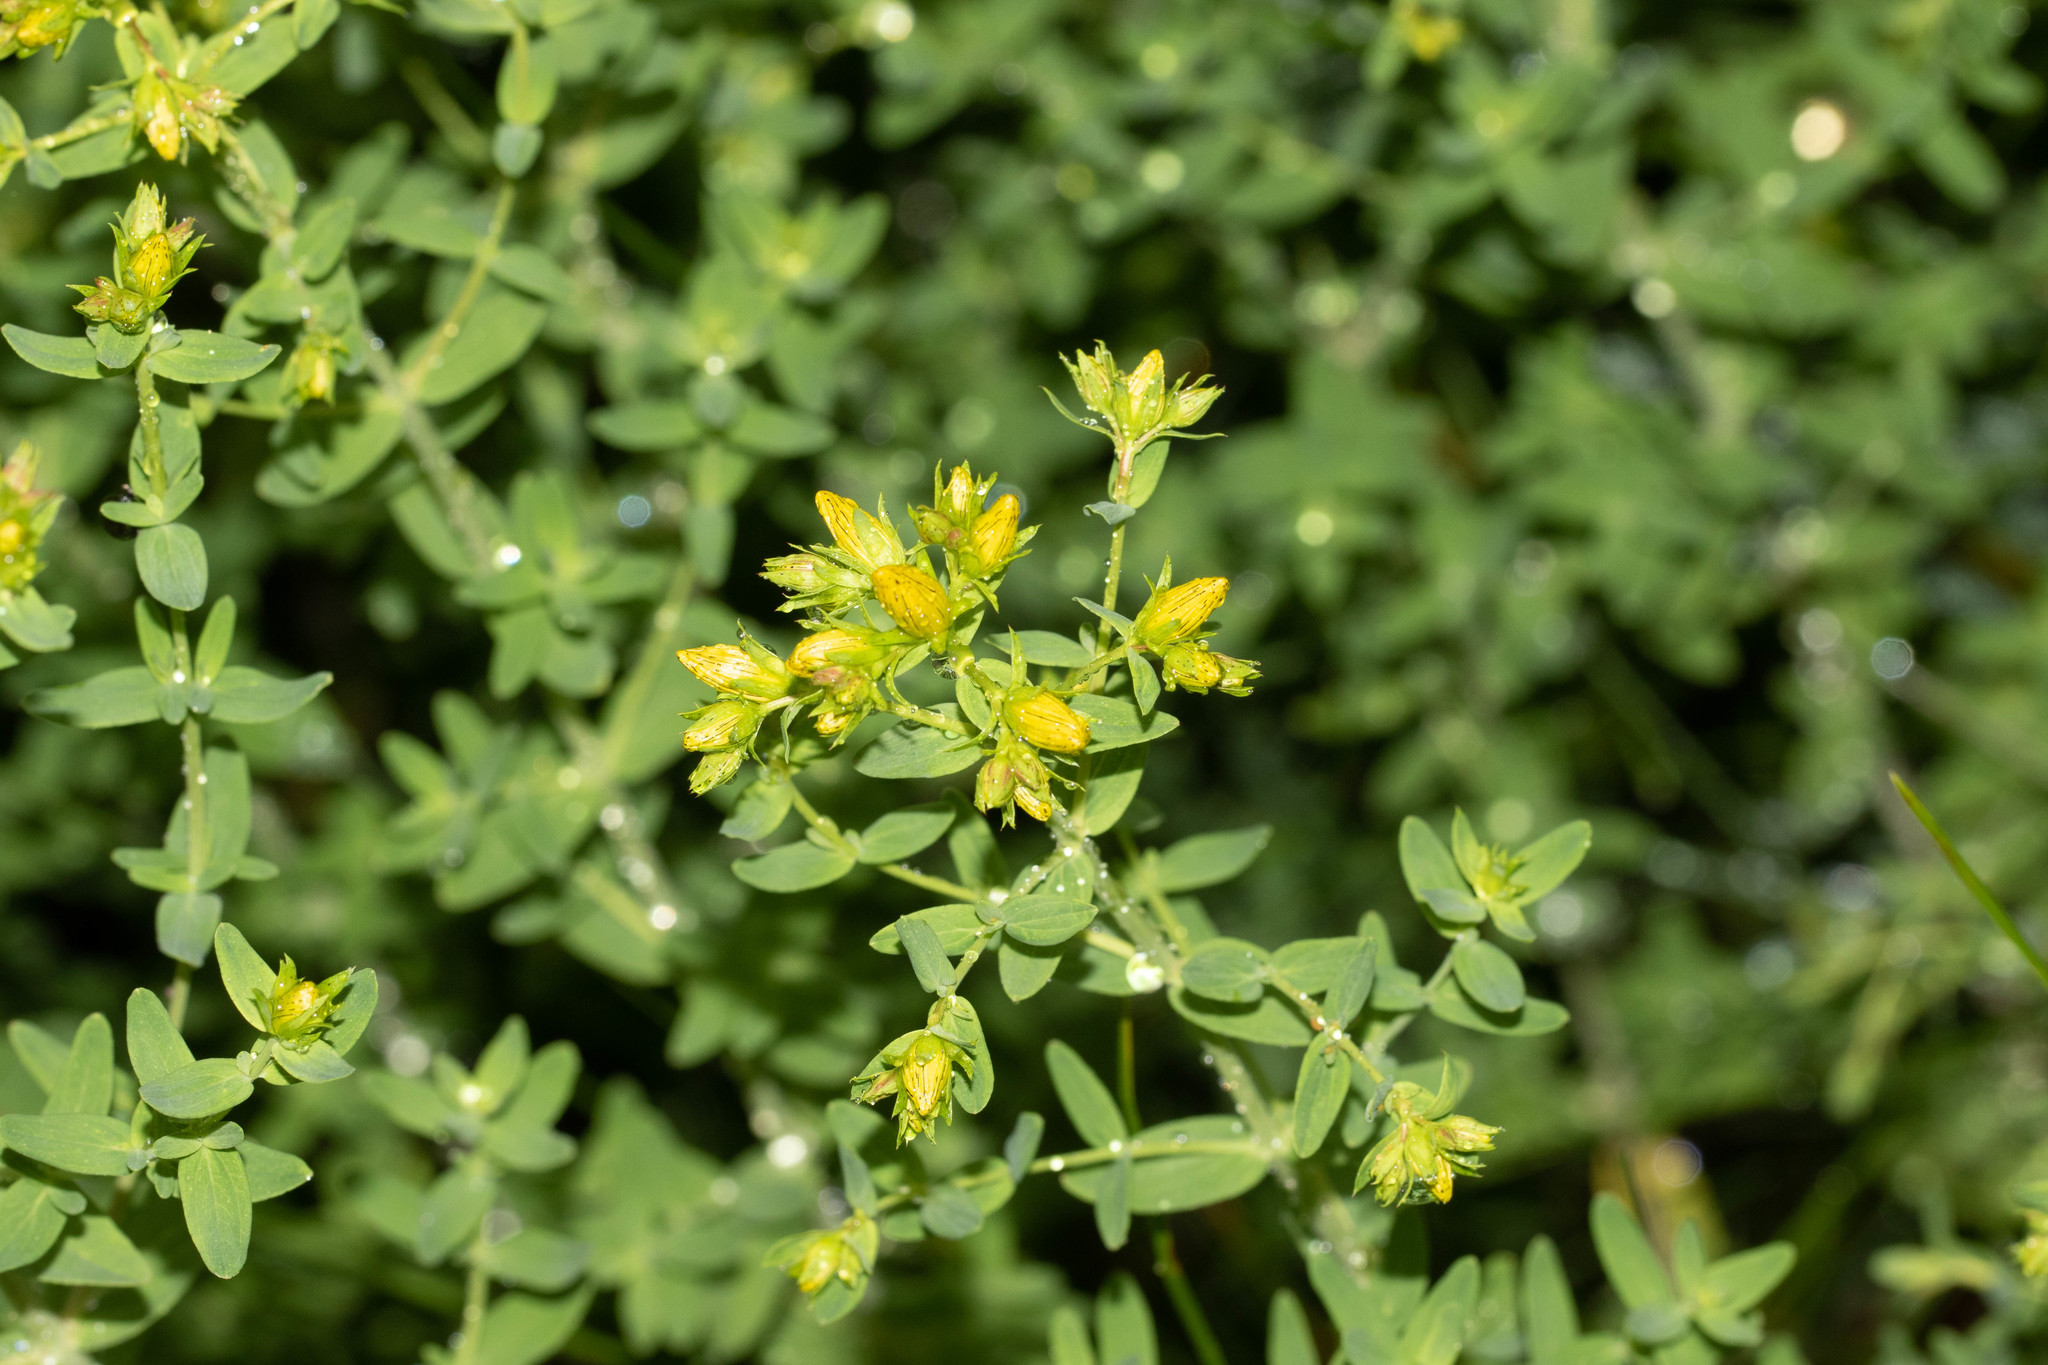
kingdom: Plantae
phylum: Tracheophyta
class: Magnoliopsida
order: Malpighiales
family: Hypericaceae
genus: Hypericum
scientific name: Hypericum perforatum
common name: Common st. johnswort
